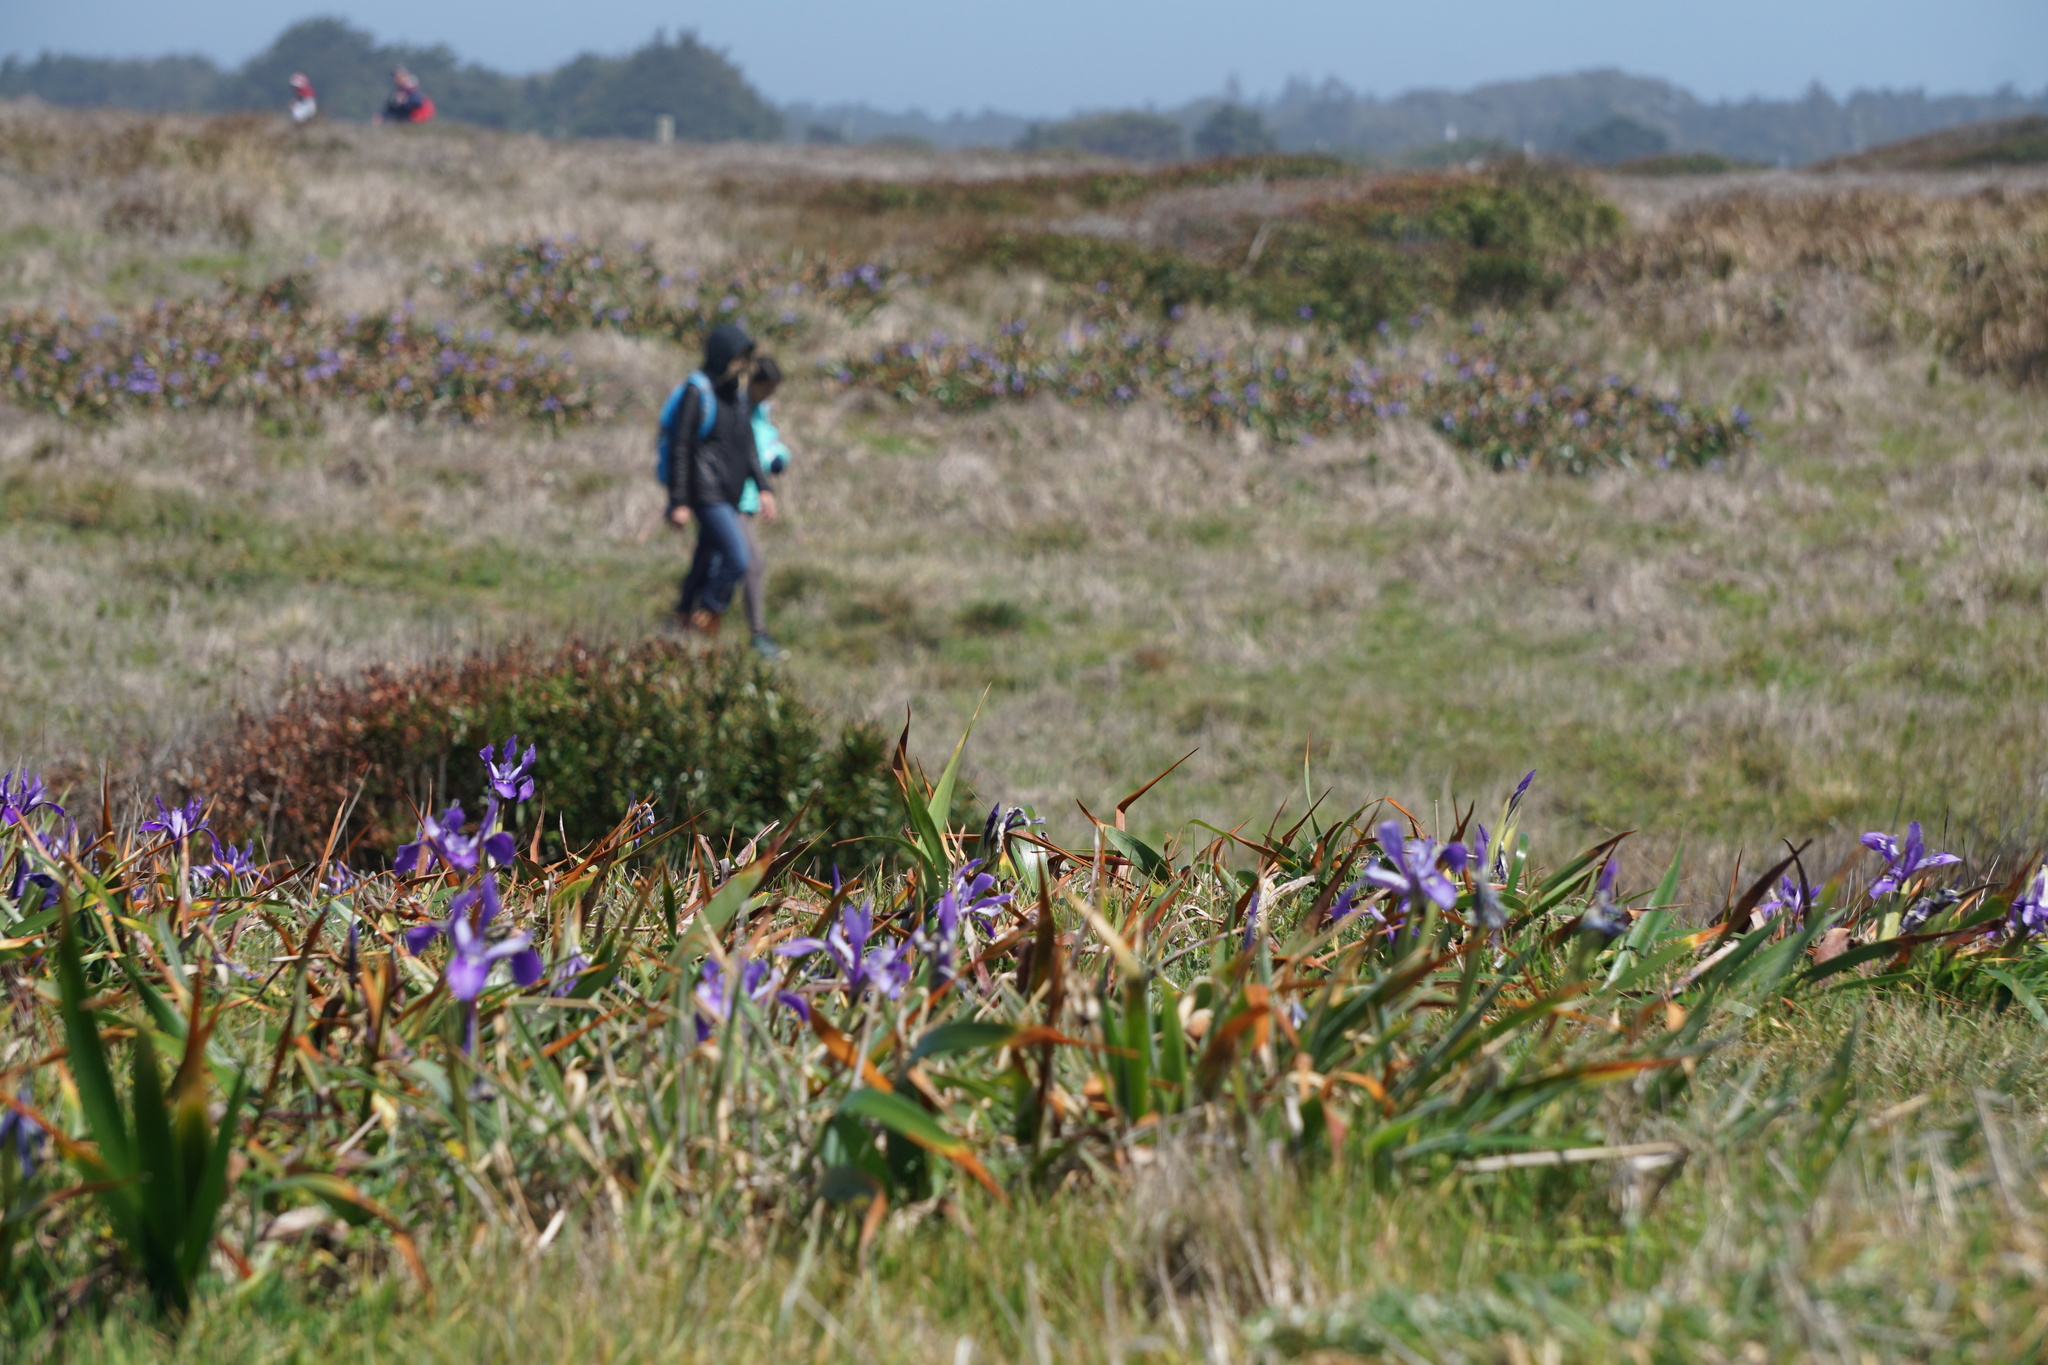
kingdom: Plantae
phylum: Tracheophyta
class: Liliopsida
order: Asparagales
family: Iridaceae
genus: Iris
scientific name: Iris douglasiana
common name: Marin iris
